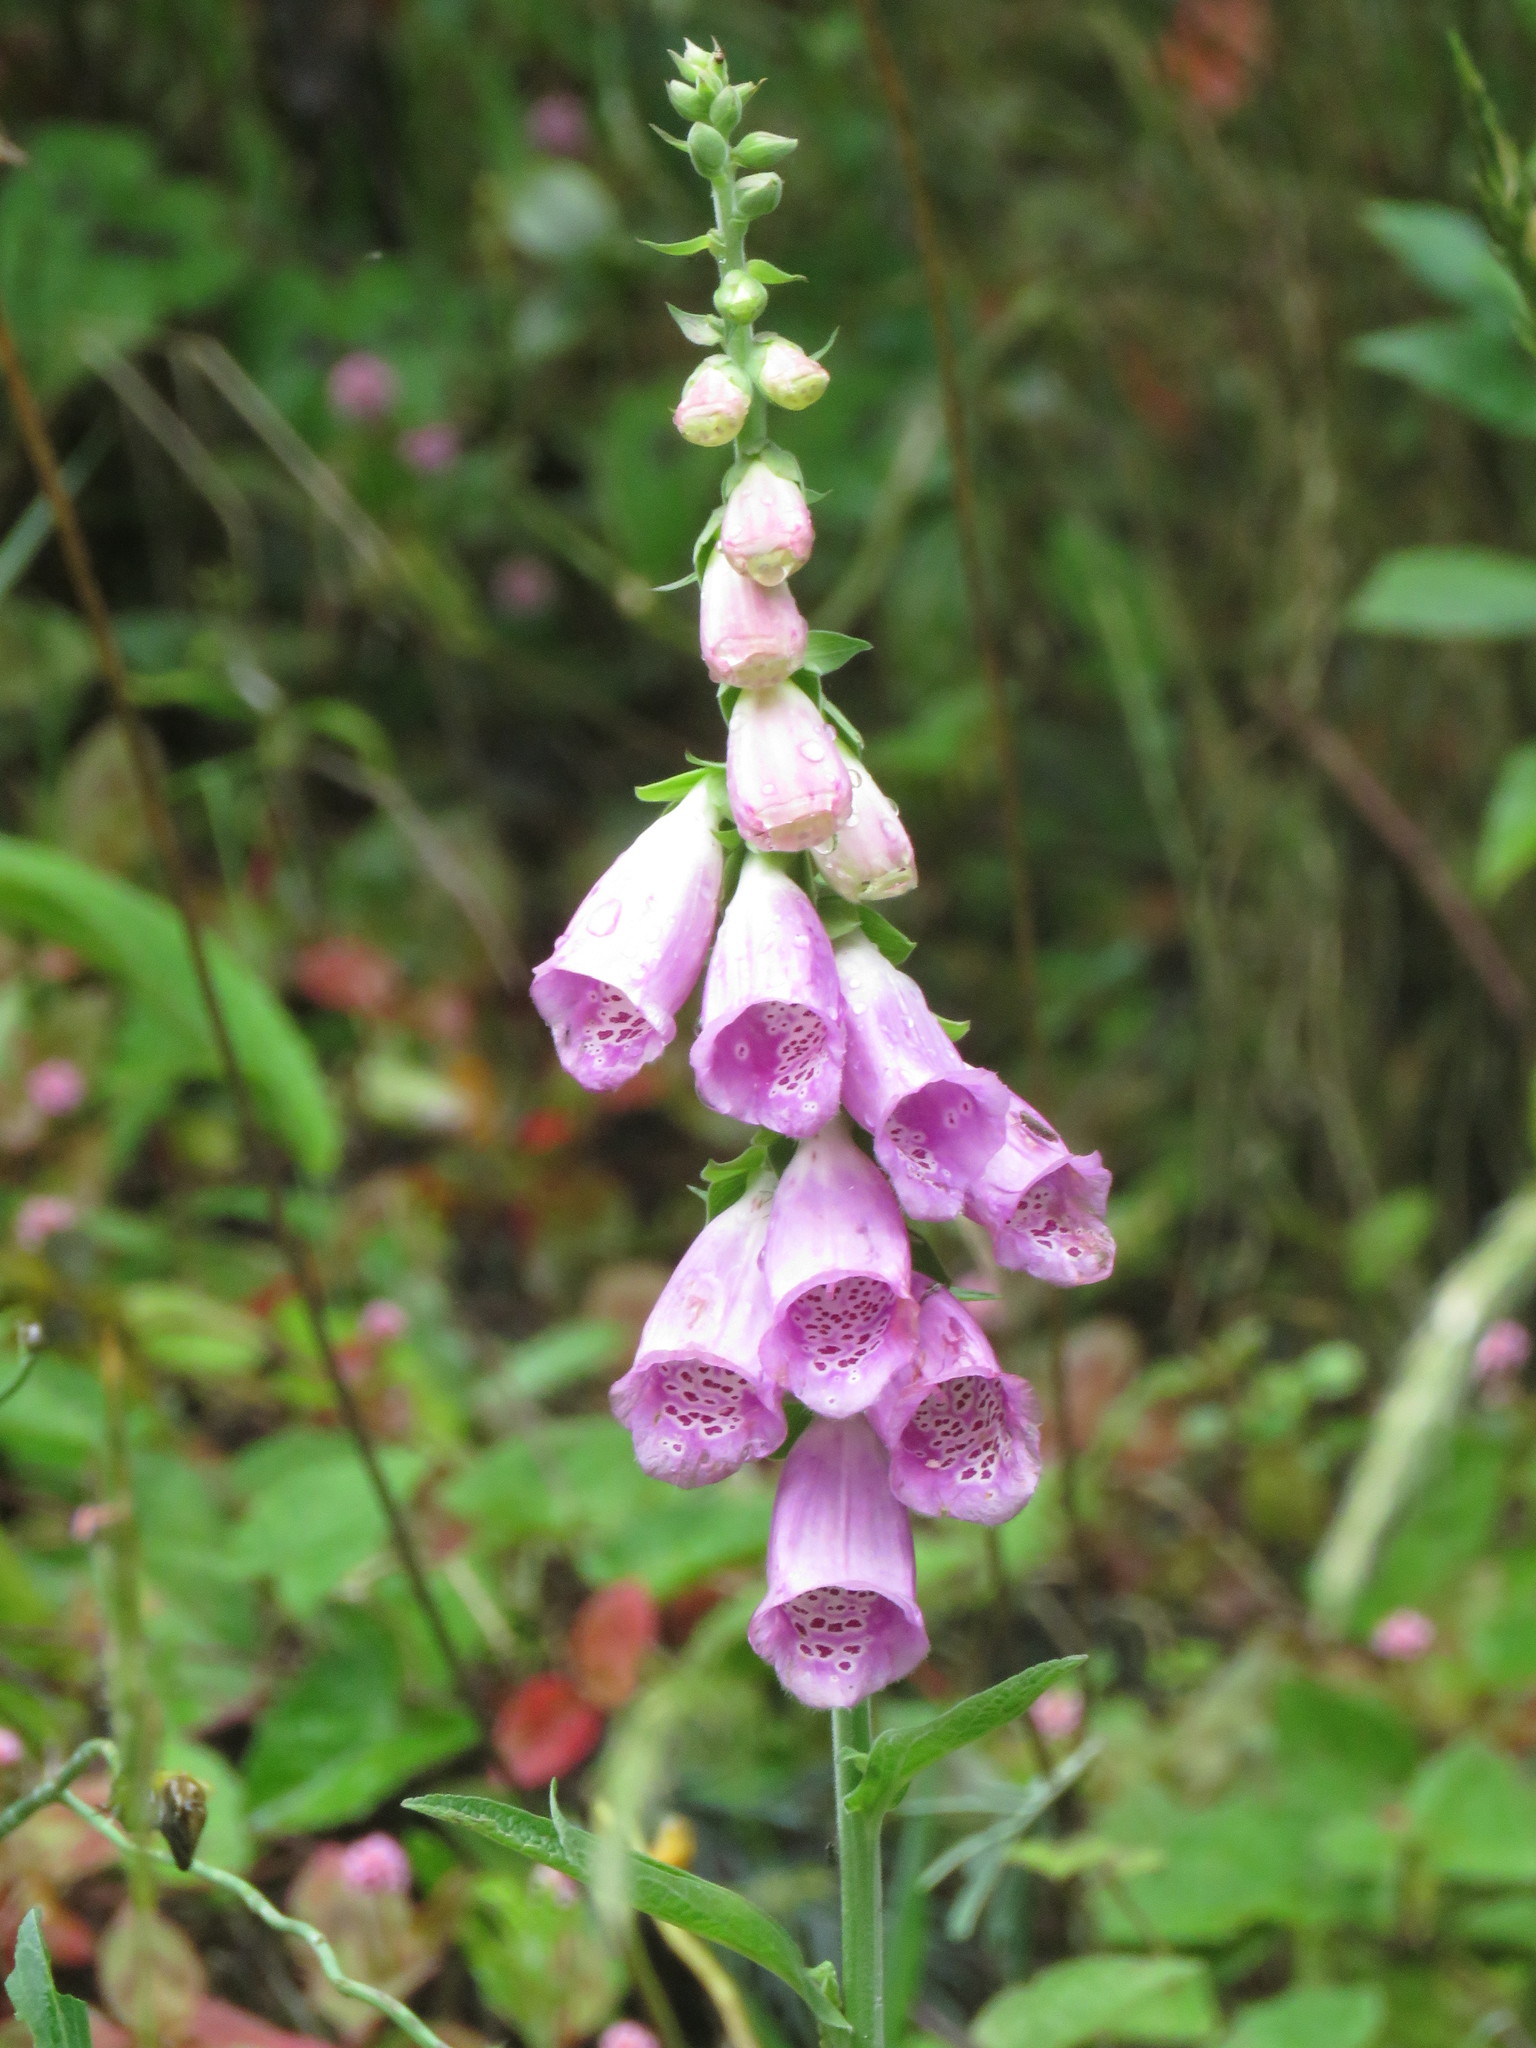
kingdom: Plantae
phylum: Tracheophyta
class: Magnoliopsida
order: Lamiales
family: Plantaginaceae
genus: Digitalis
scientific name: Digitalis purpurea
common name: Foxglove
